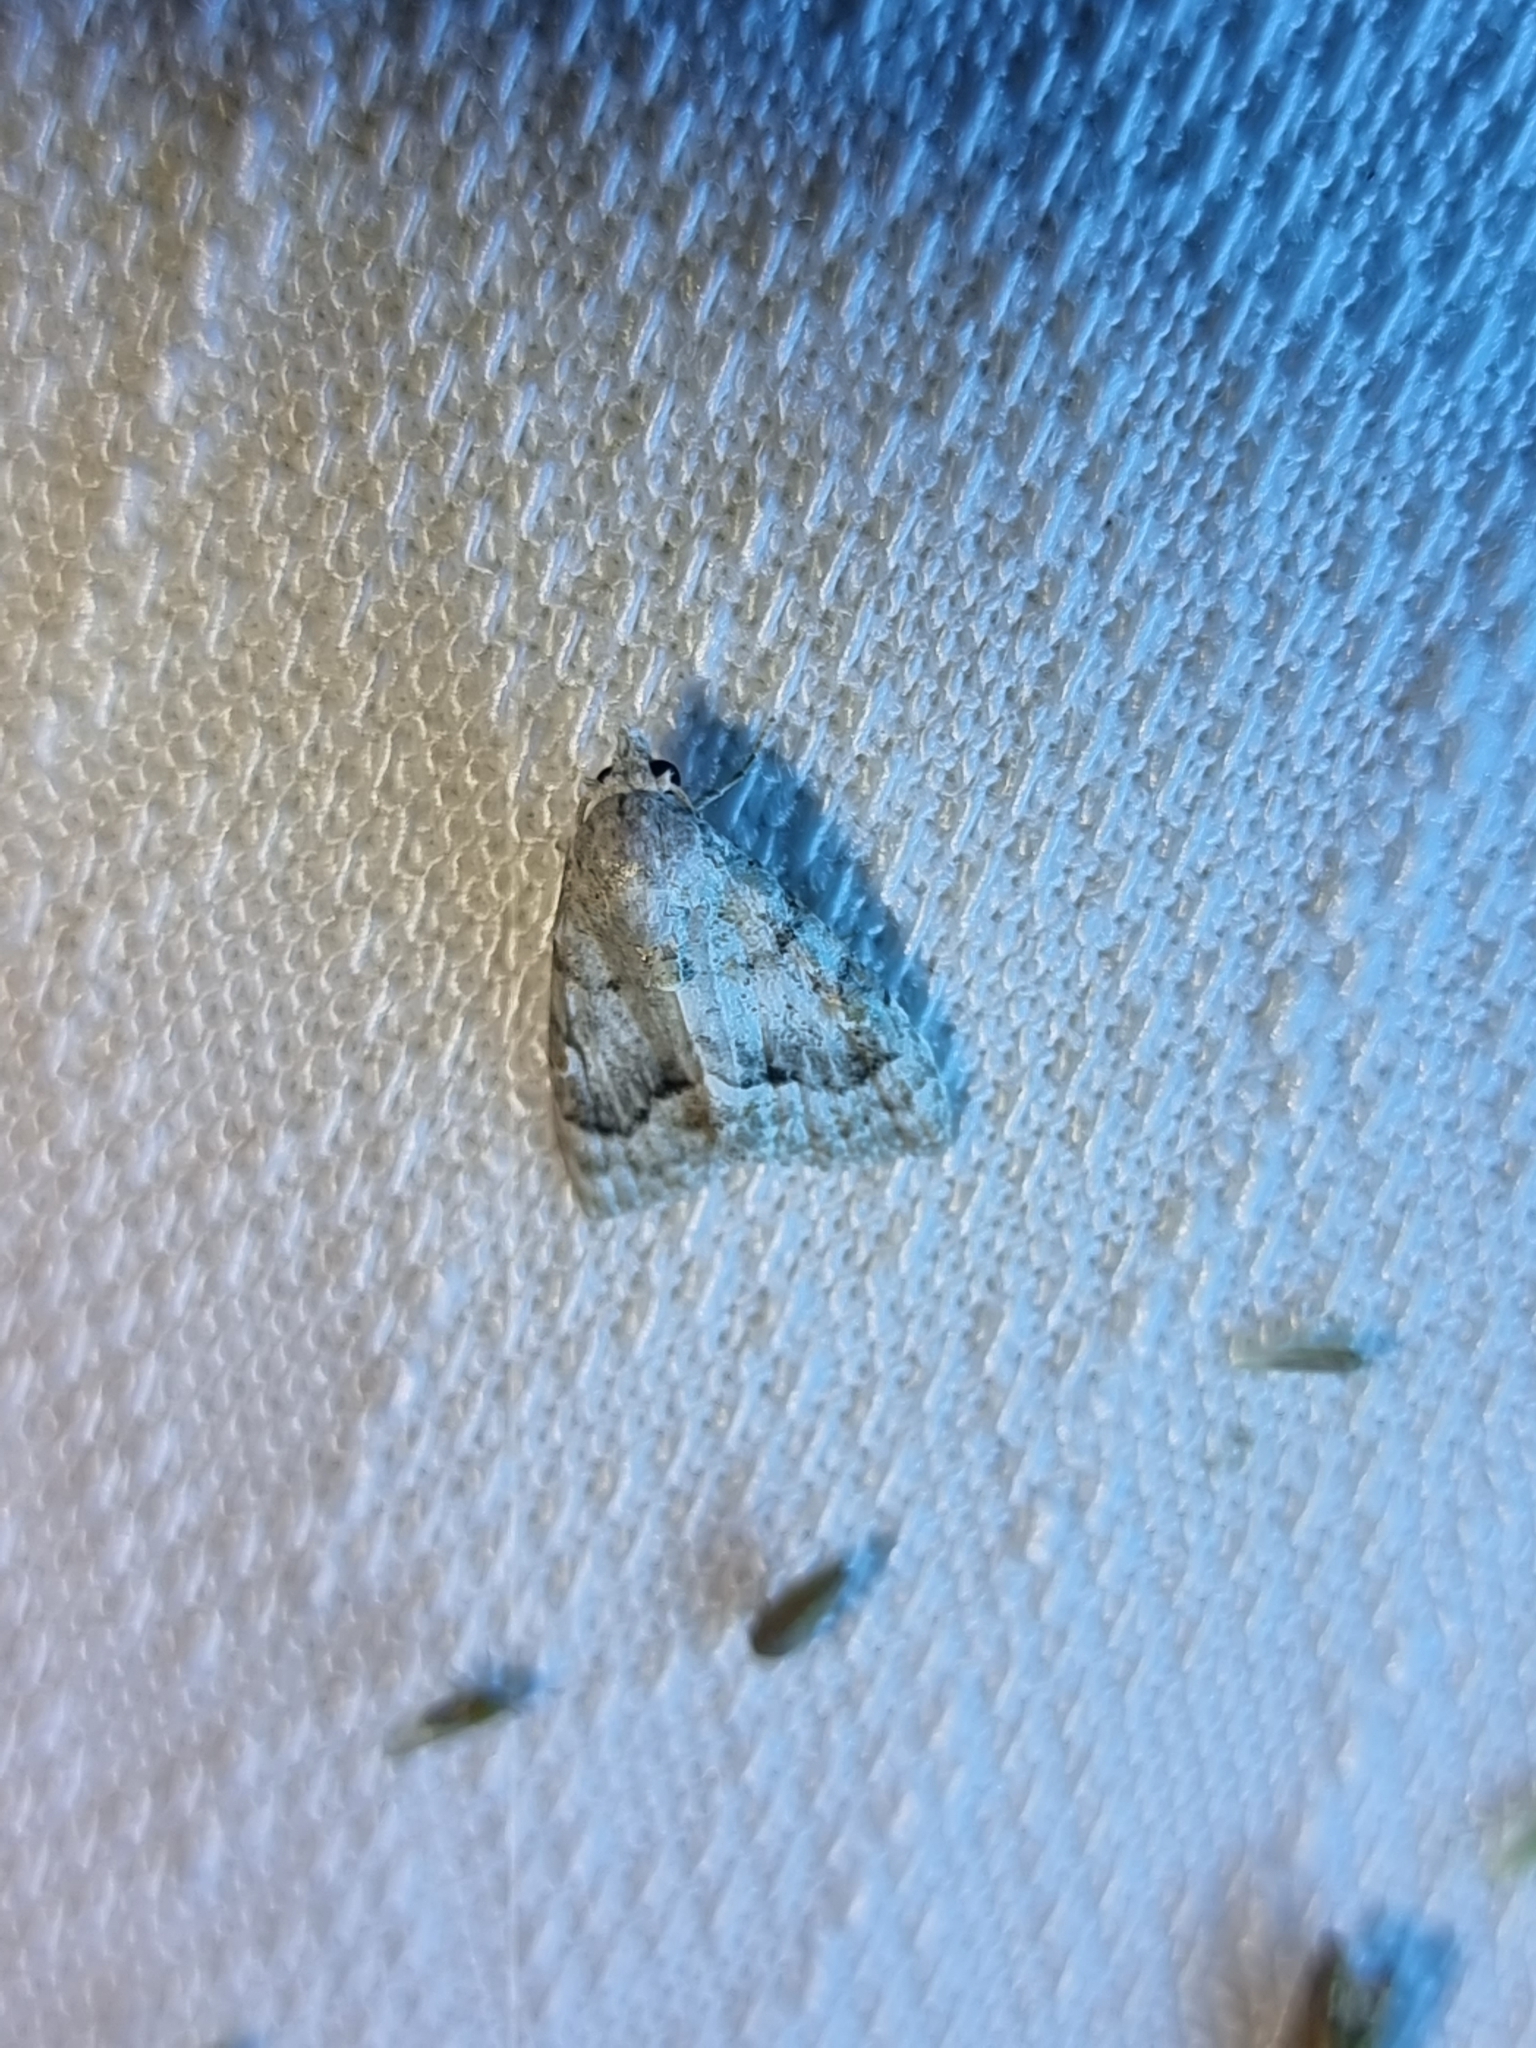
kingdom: Animalia
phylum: Arthropoda
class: Insecta
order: Lepidoptera
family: Nolidae
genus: Nola
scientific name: Nola fasciata
